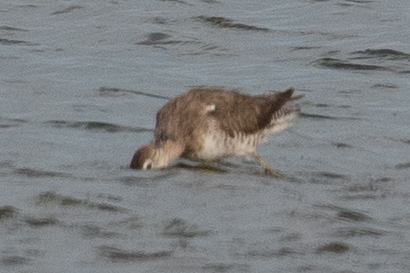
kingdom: Animalia
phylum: Chordata
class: Aves
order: Charadriiformes
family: Scolopacidae
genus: Limnodromus
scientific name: Limnodromus scolopaceus
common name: Long-billed dowitcher
